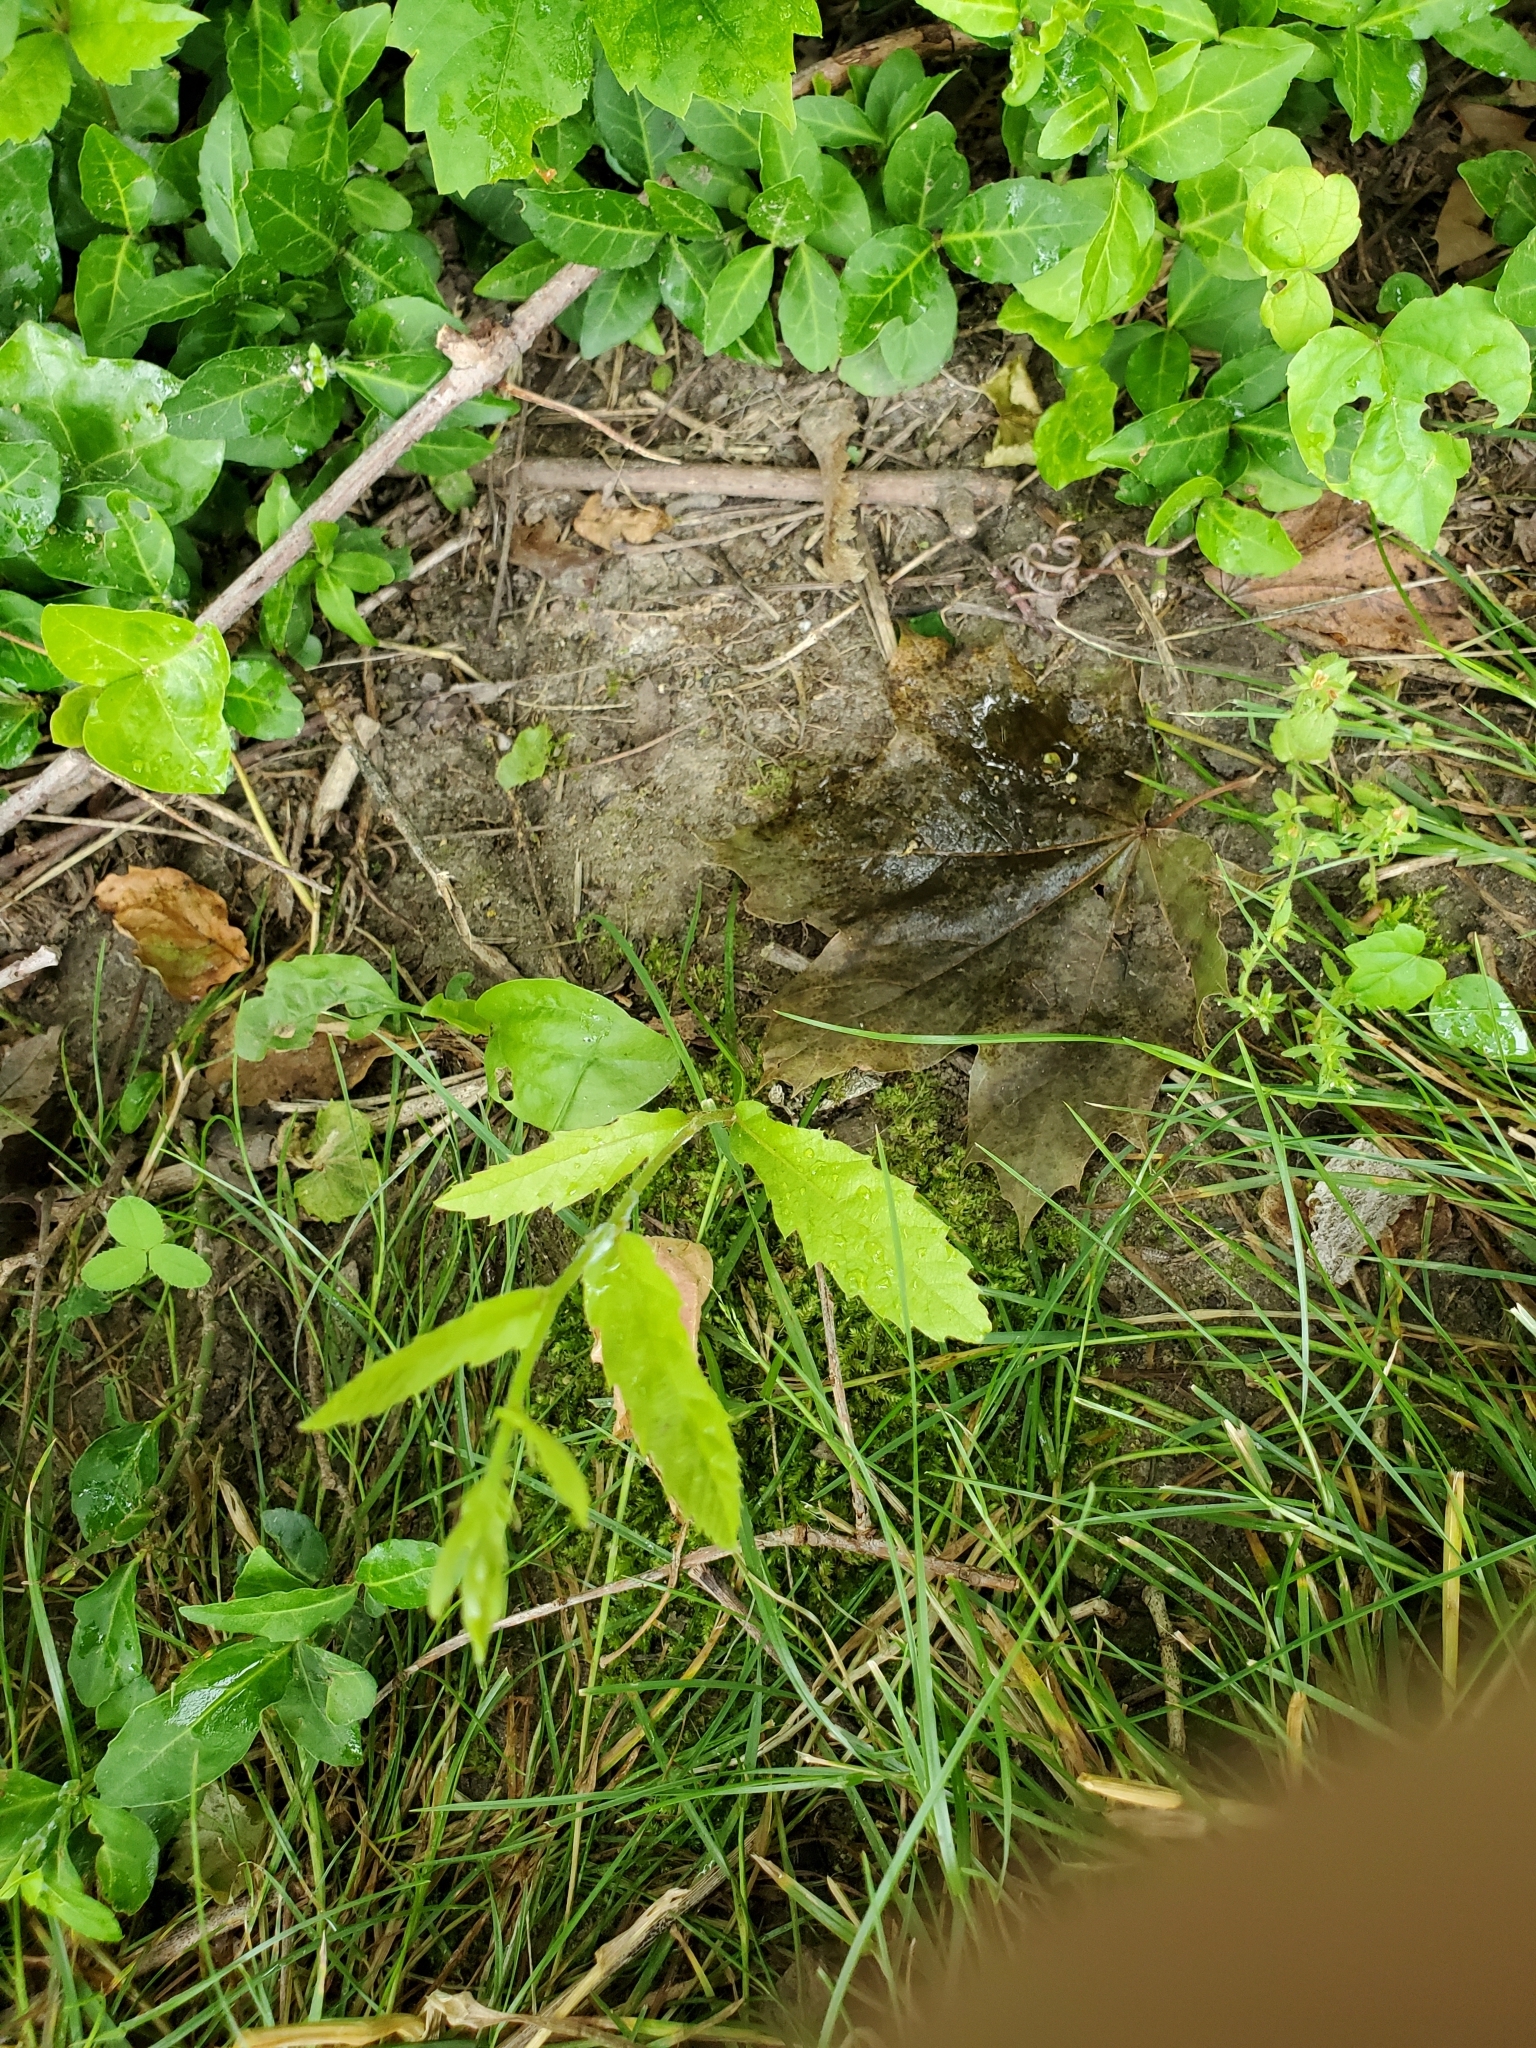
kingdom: Plantae
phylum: Tracheophyta
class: Magnoliopsida
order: Fagales
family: Fagaceae
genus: Quercus
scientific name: Quercus acutissima
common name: Sawtooth oak
